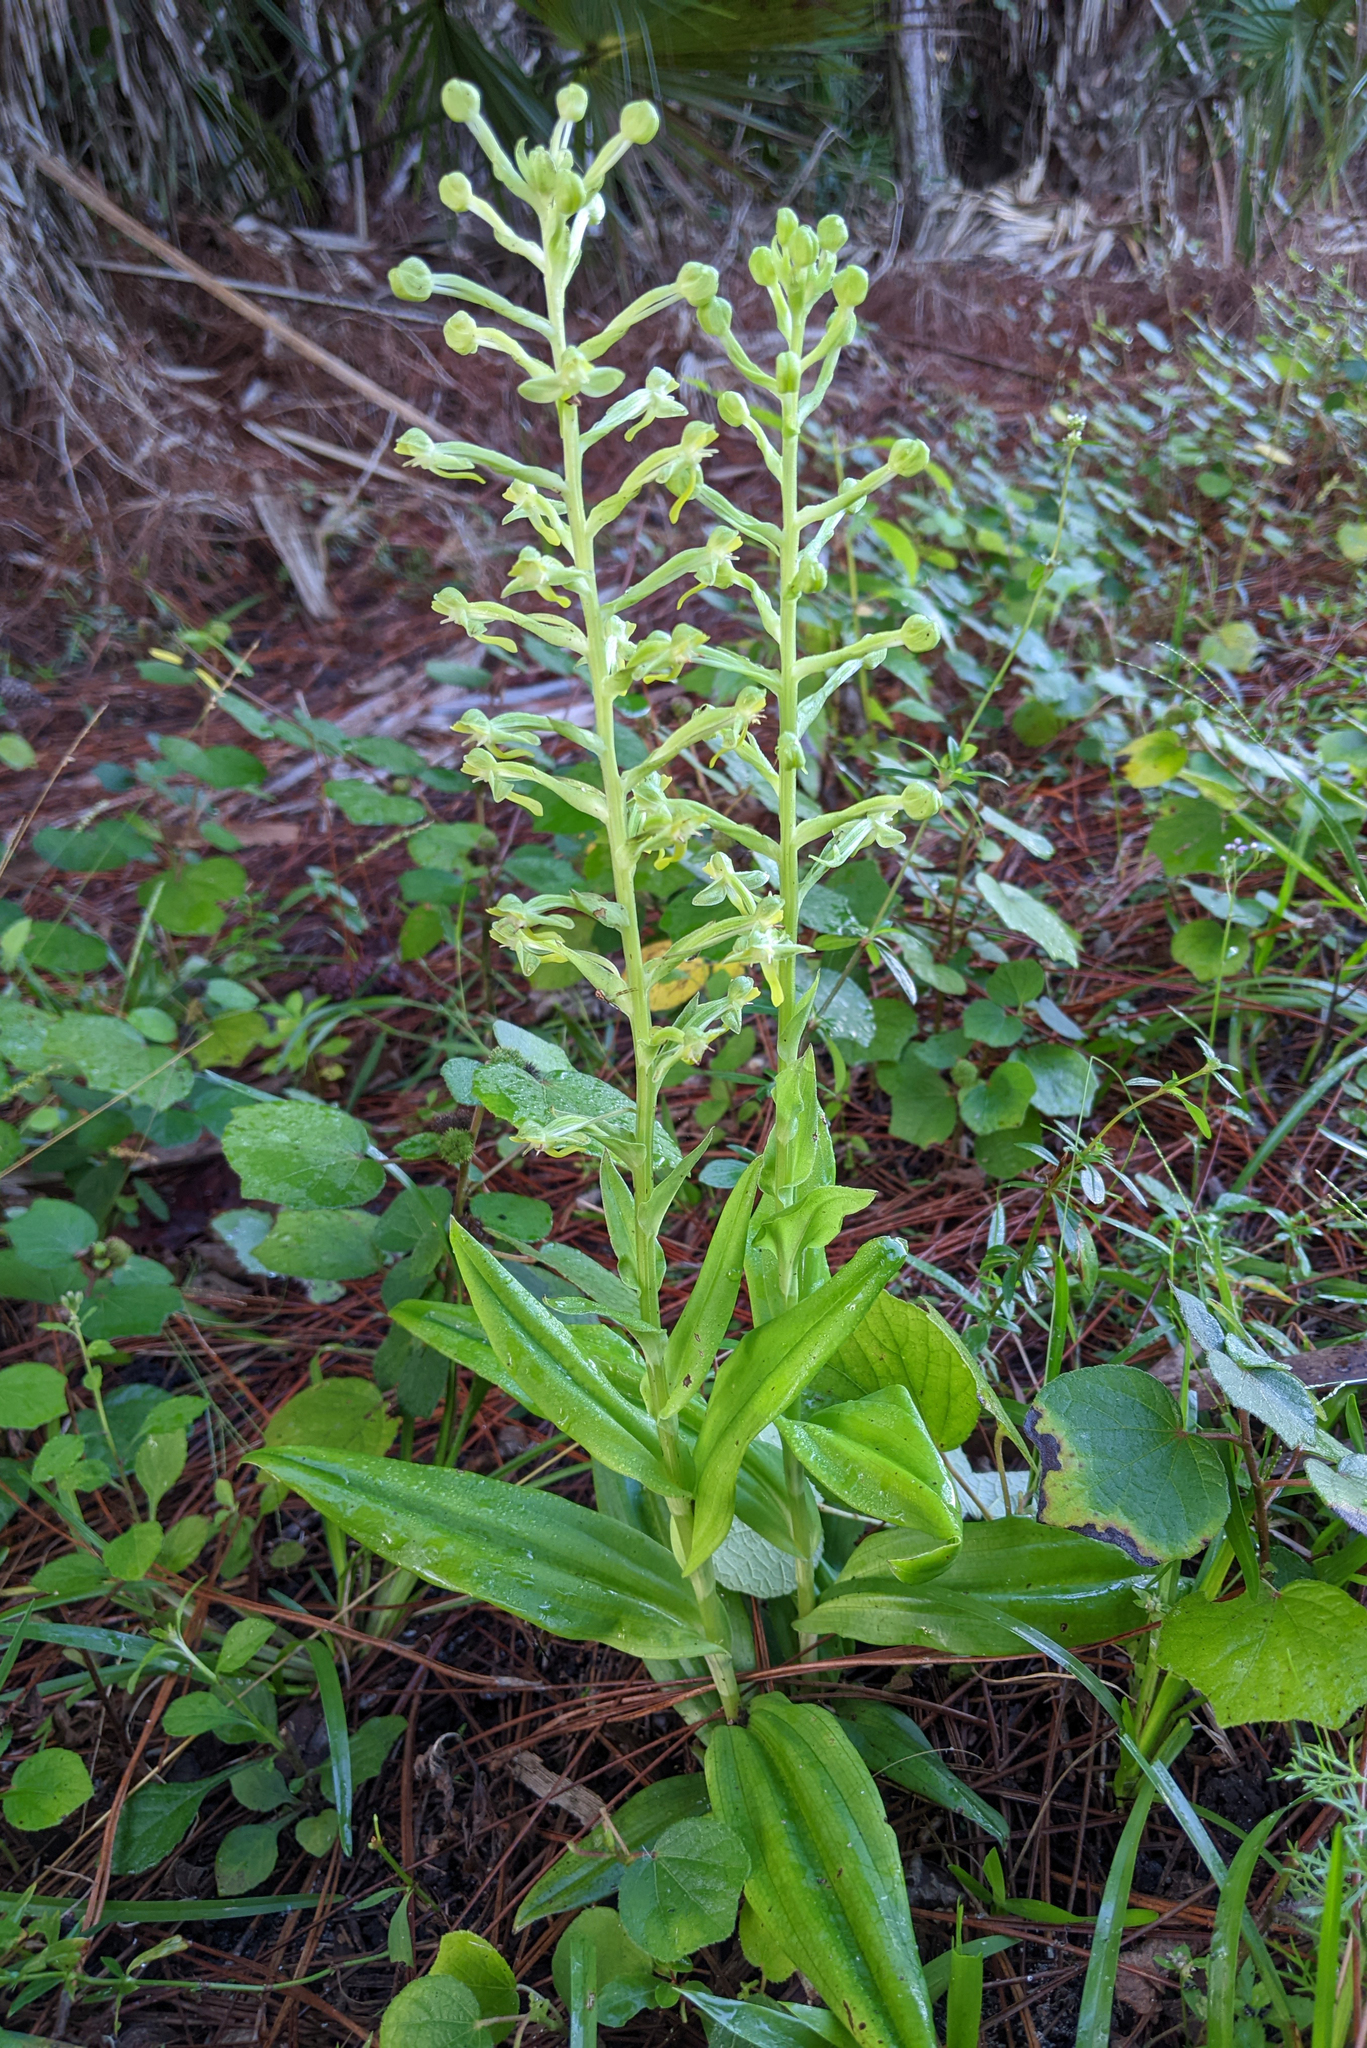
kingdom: Plantae
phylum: Tracheophyta
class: Liliopsida
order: Asparagales
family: Orchidaceae
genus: Habenaria
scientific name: Habenaria floribunda
